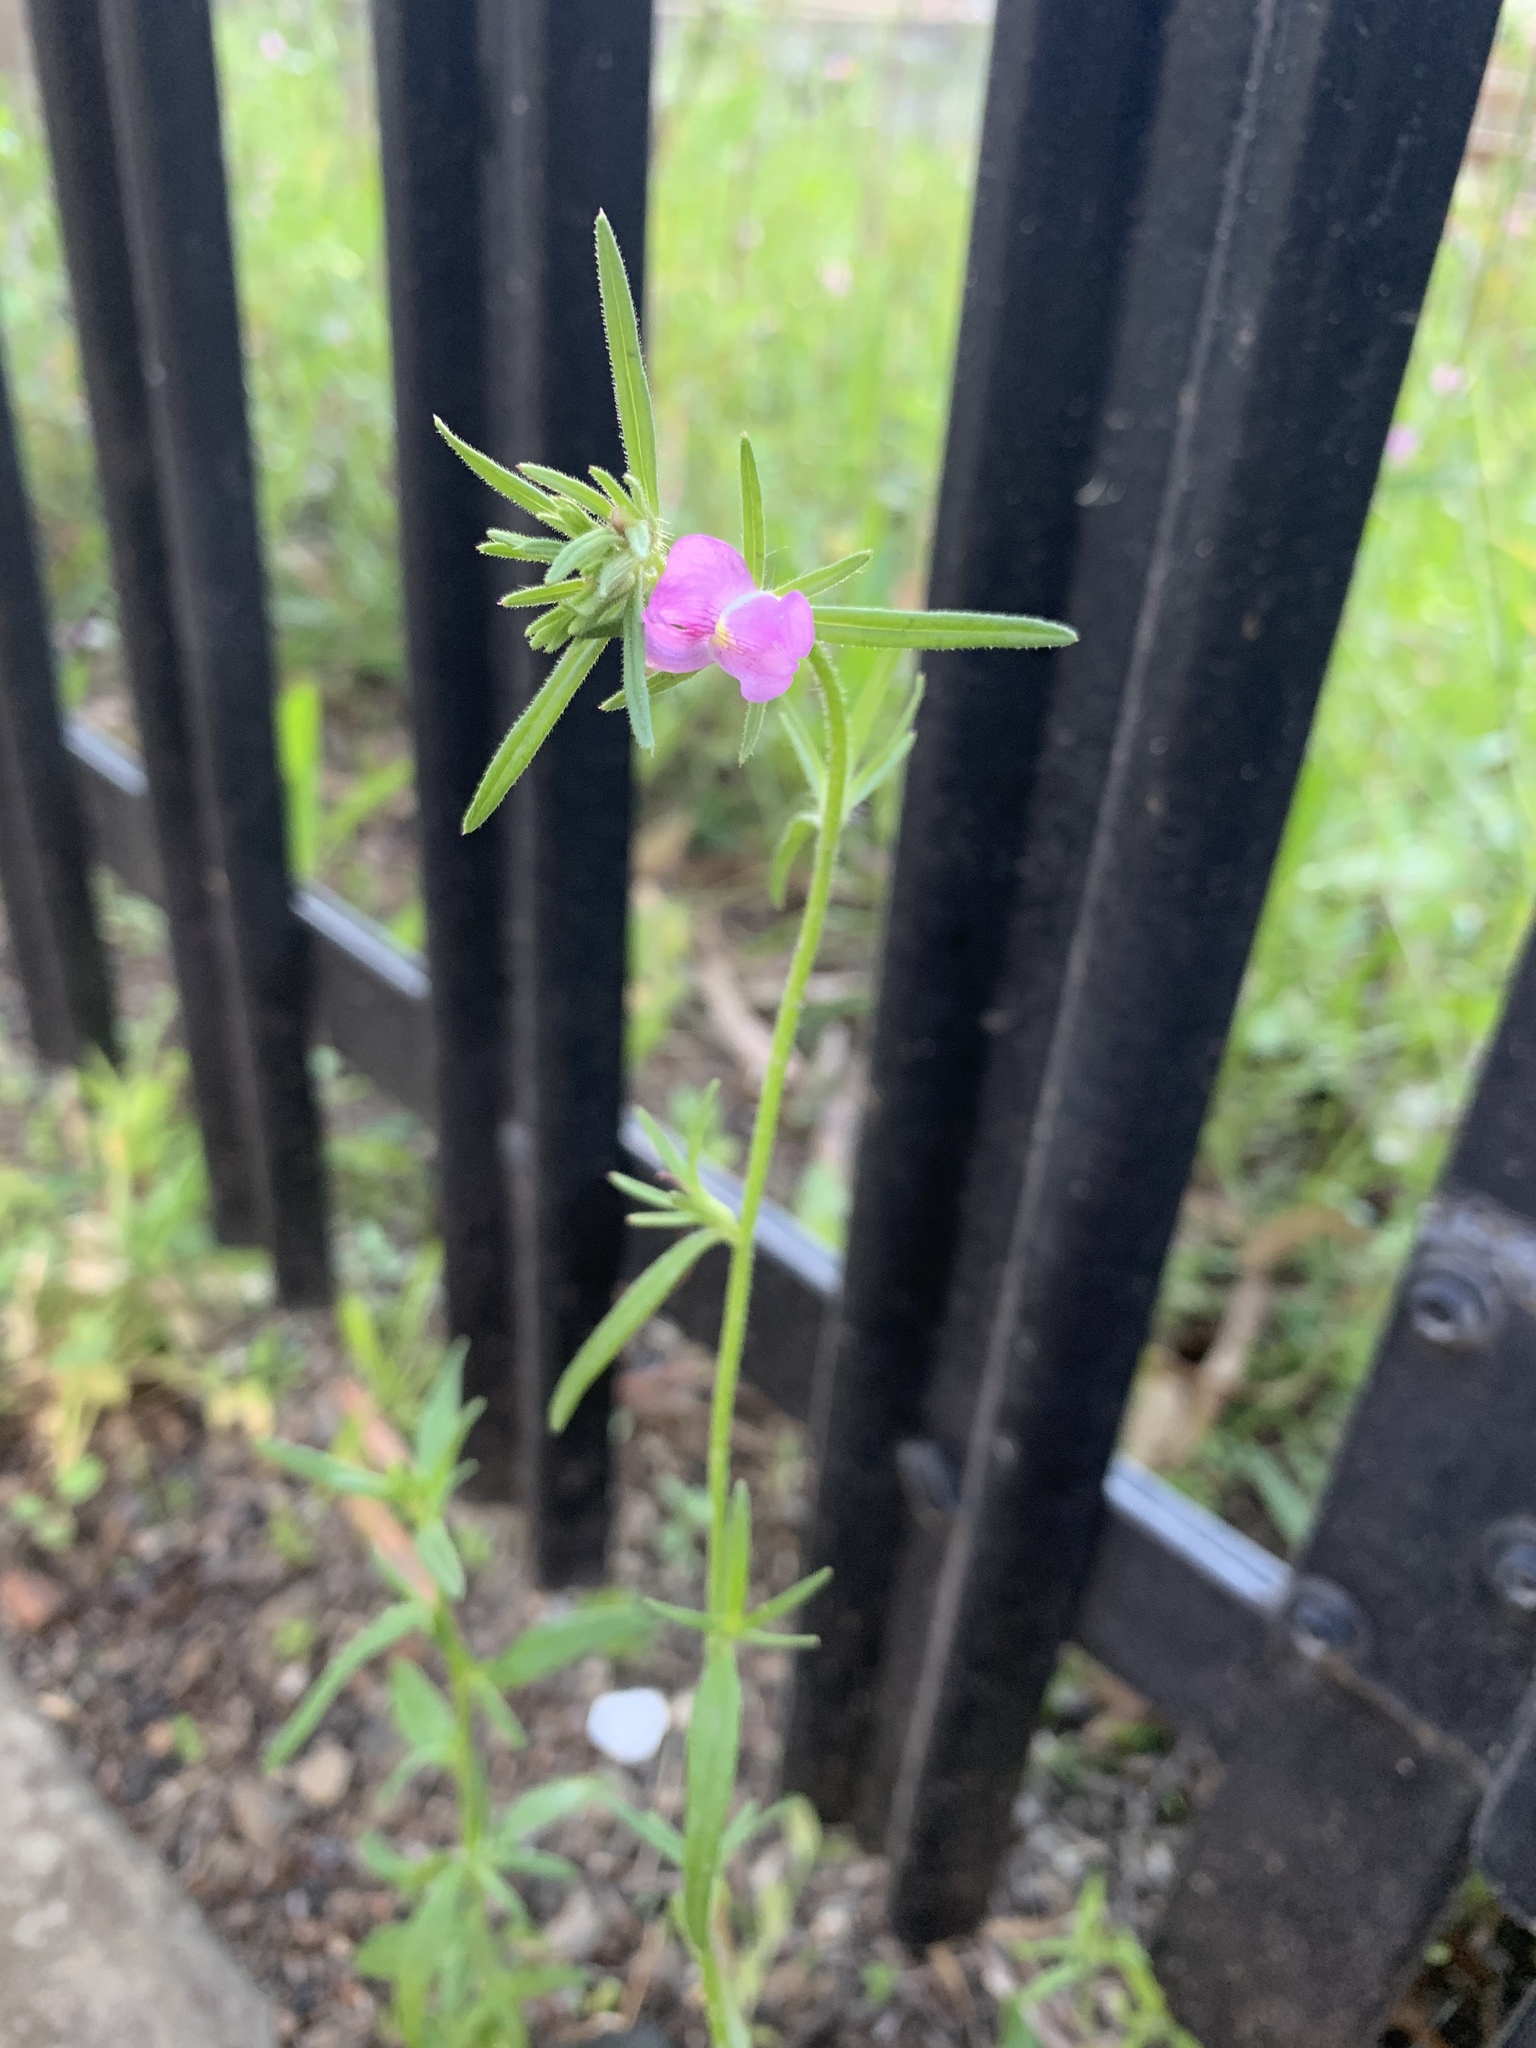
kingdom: Plantae
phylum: Tracheophyta
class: Magnoliopsida
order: Lamiales
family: Plantaginaceae
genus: Misopates
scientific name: Misopates orontium
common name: Weasel's-snout
